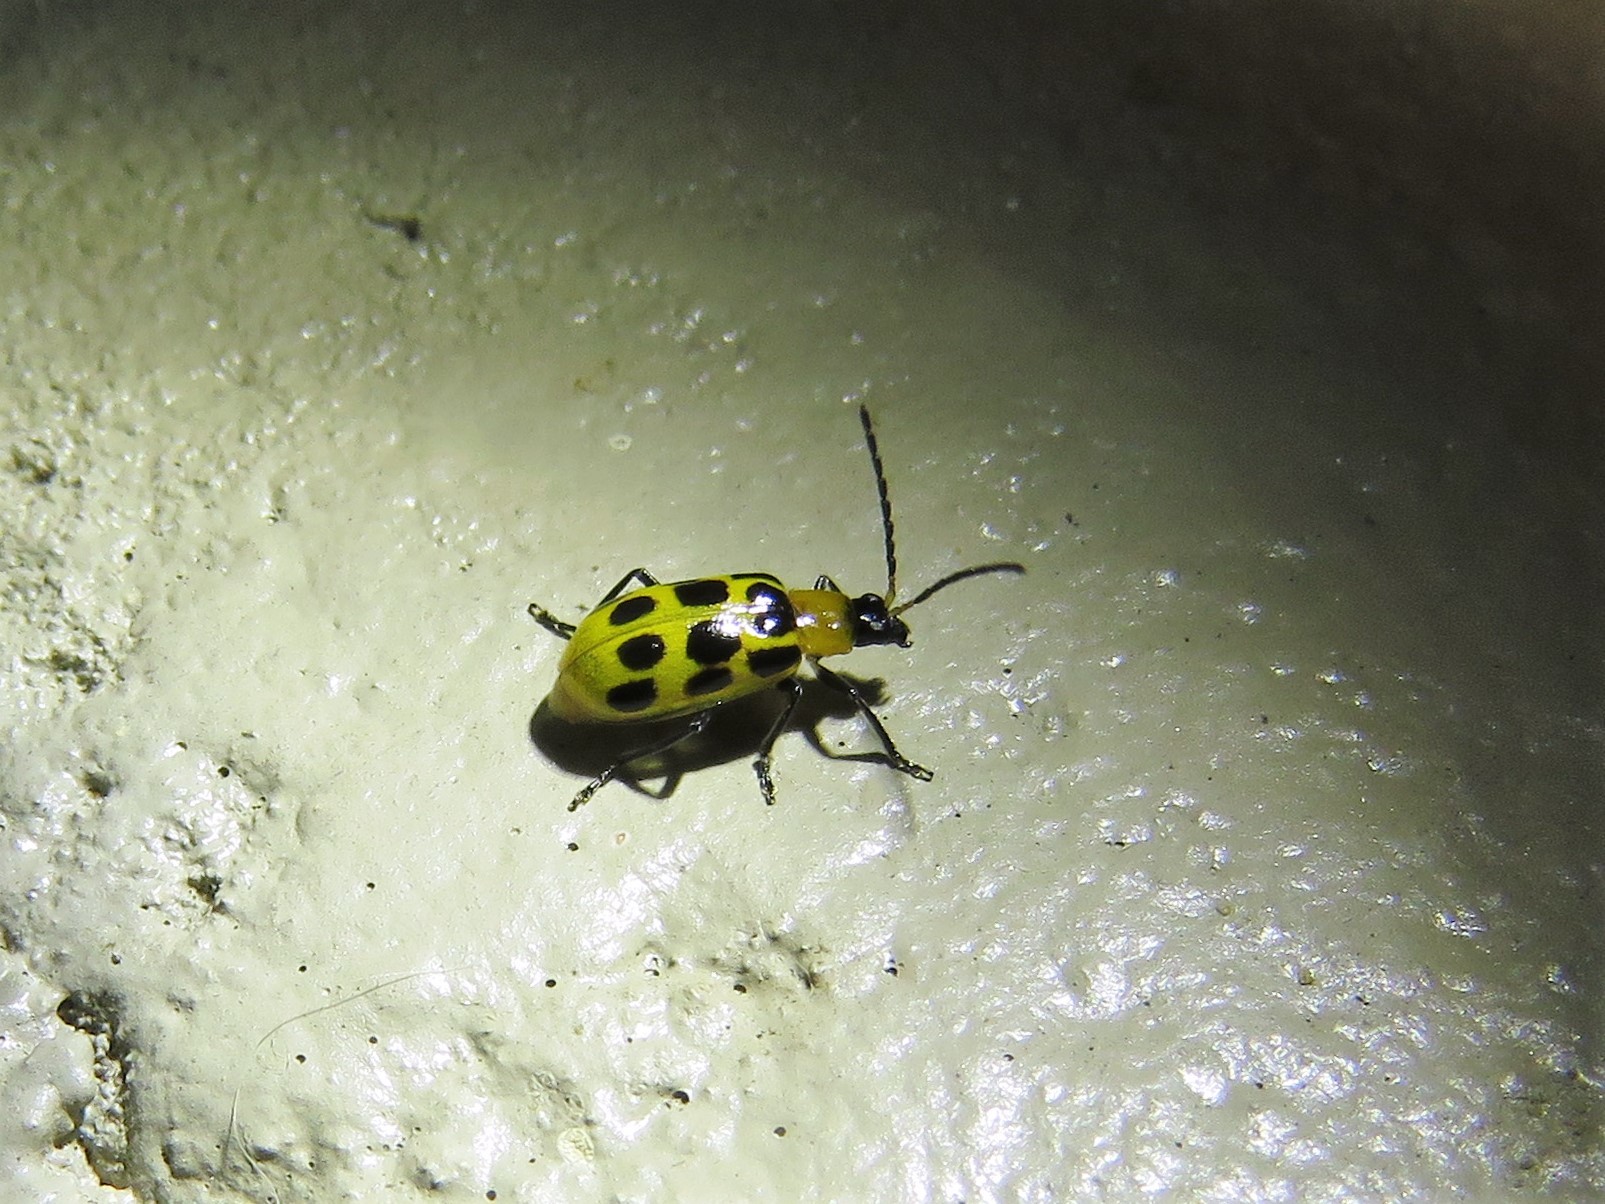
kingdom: Animalia
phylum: Arthropoda
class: Insecta
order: Coleoptera
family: Chrysomelidae
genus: Diabrotica
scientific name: Diabrotica undecimpunctata
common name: Spotted cucumber beetle
